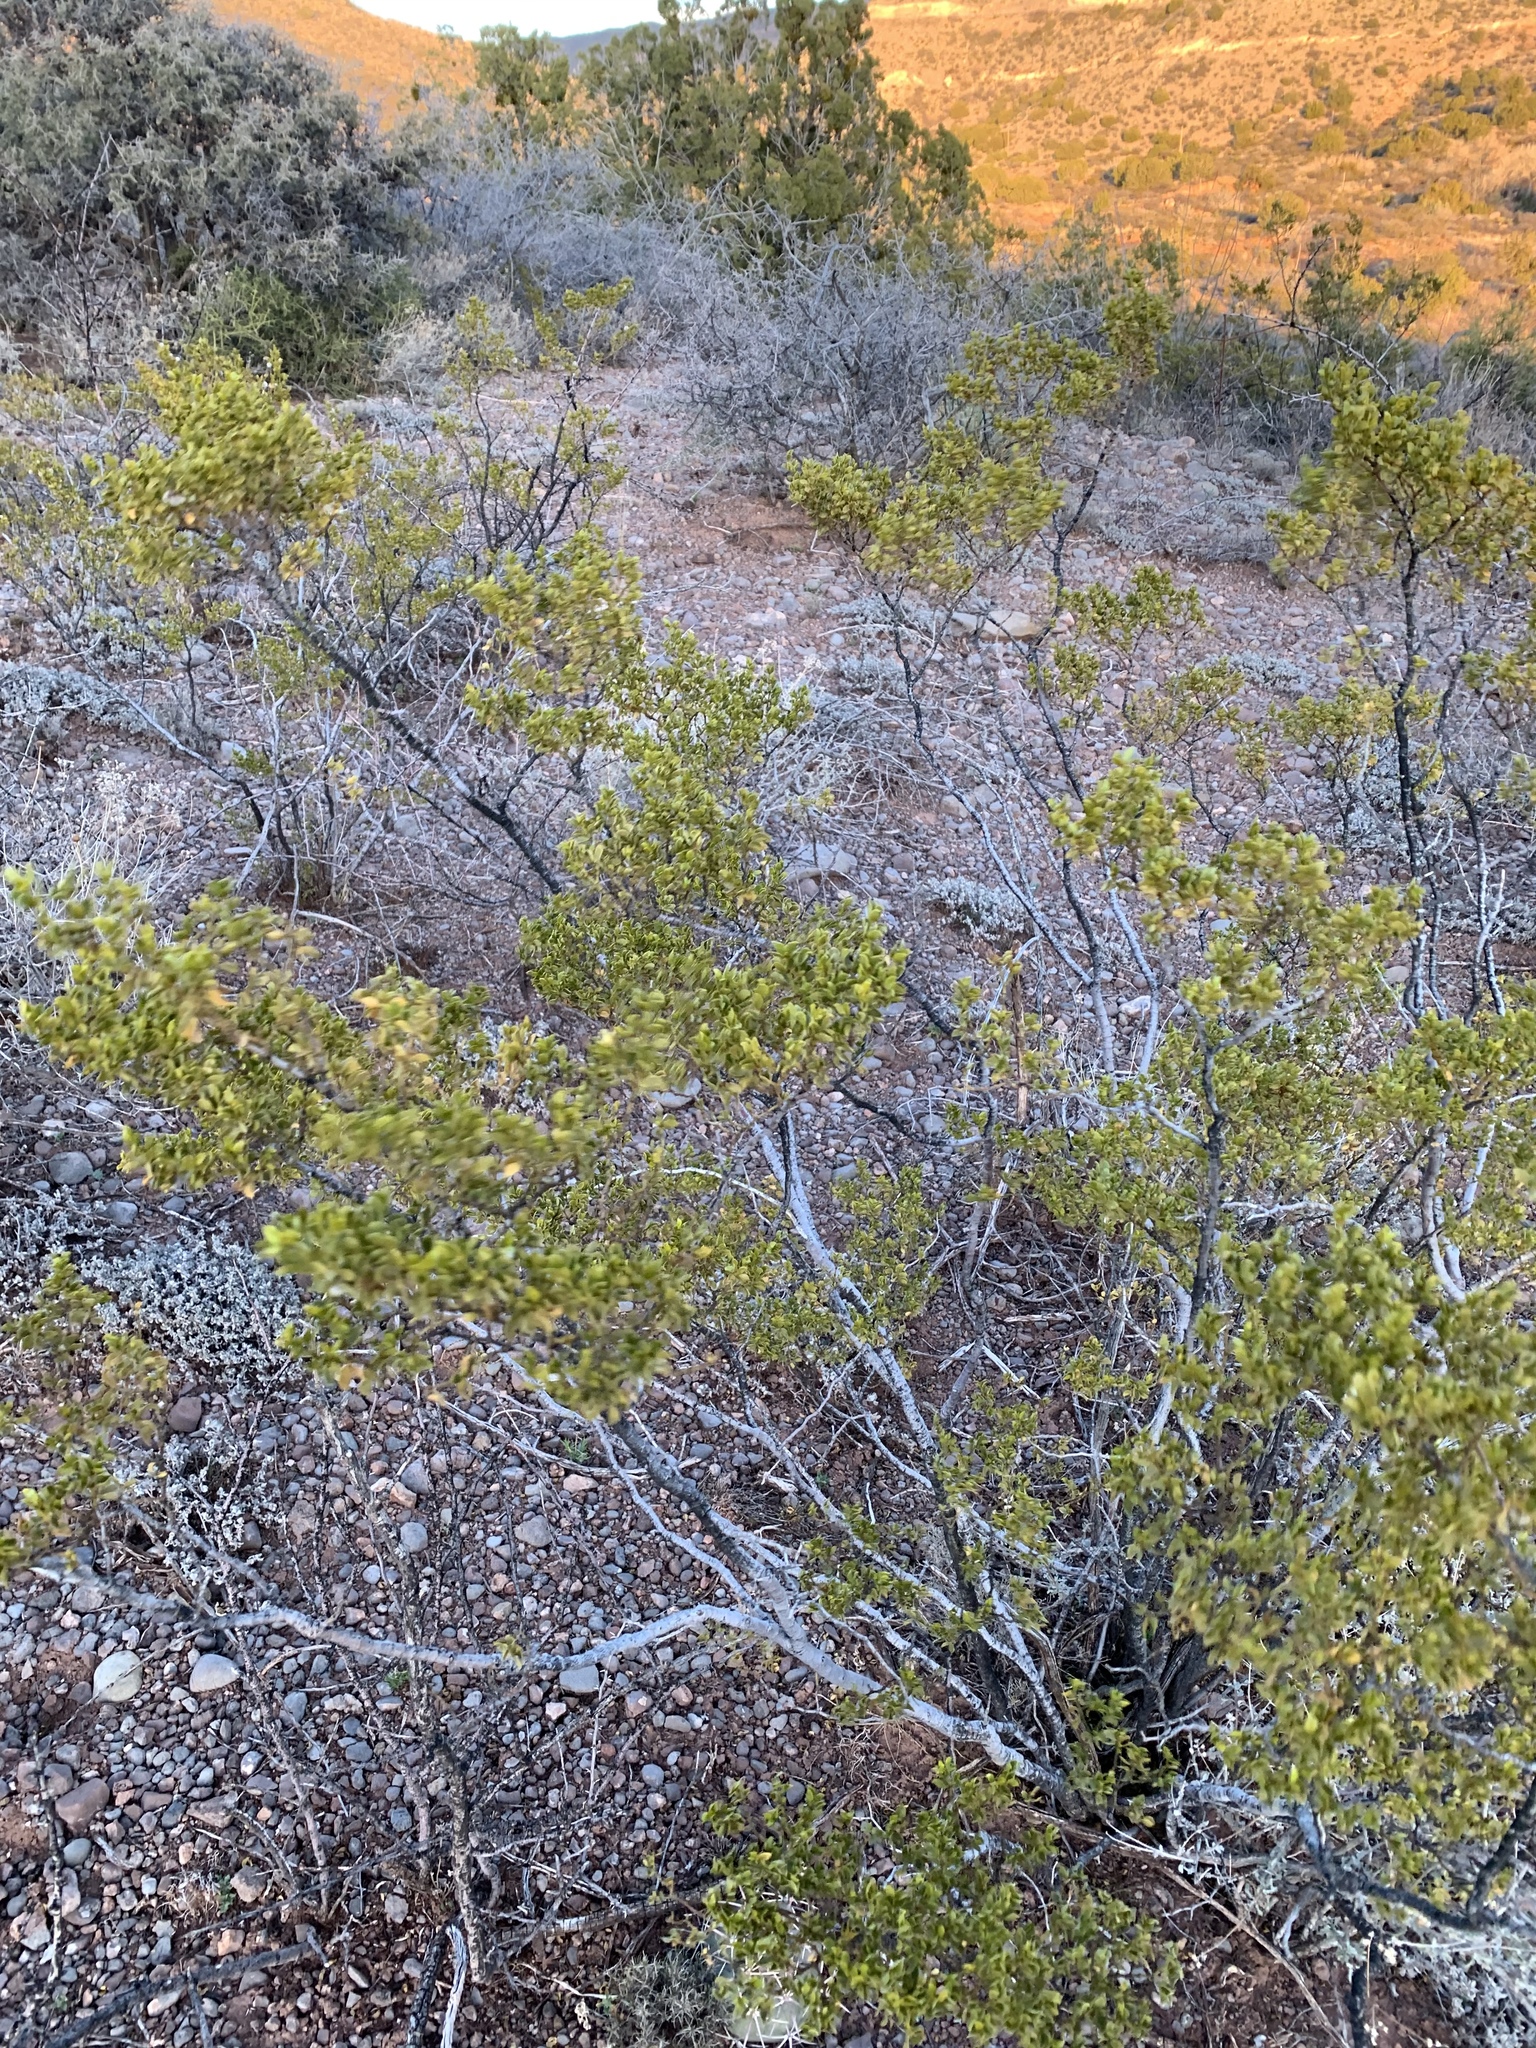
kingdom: Plantae
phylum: Tracheophyta
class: Magnoliopsida
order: Zygophyllales
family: Zygophyllaceae
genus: Larrea
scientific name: Larrea tridentata
